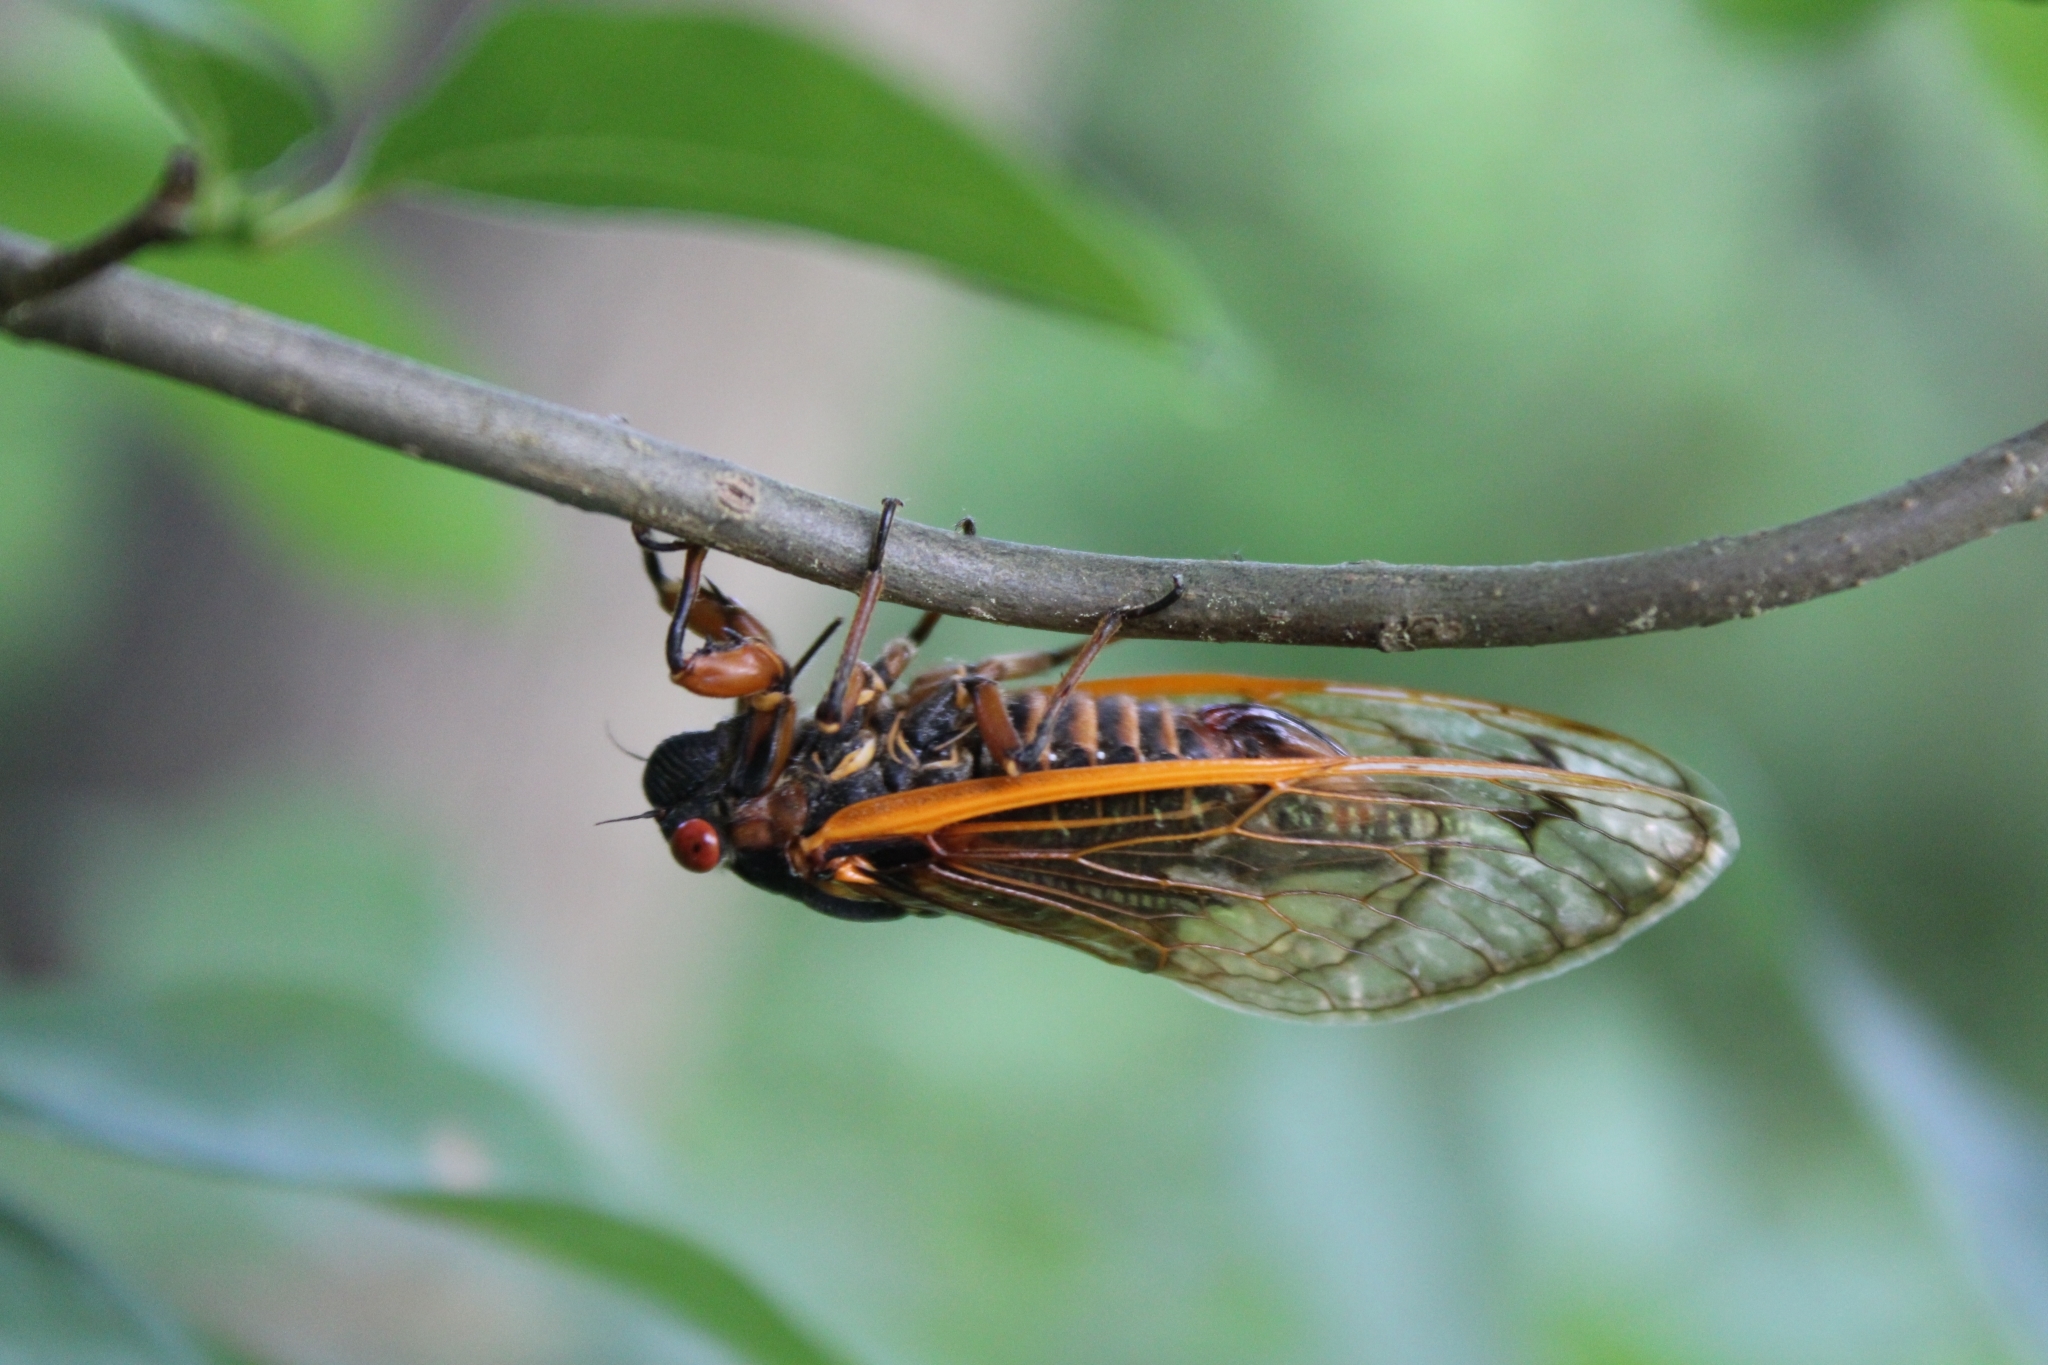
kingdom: Animalia
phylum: Arthropoda
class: Insecta
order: Hemiptera
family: Cicadidae
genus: Magicicada
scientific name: Magicicada septendecim
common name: Periodical cicada
